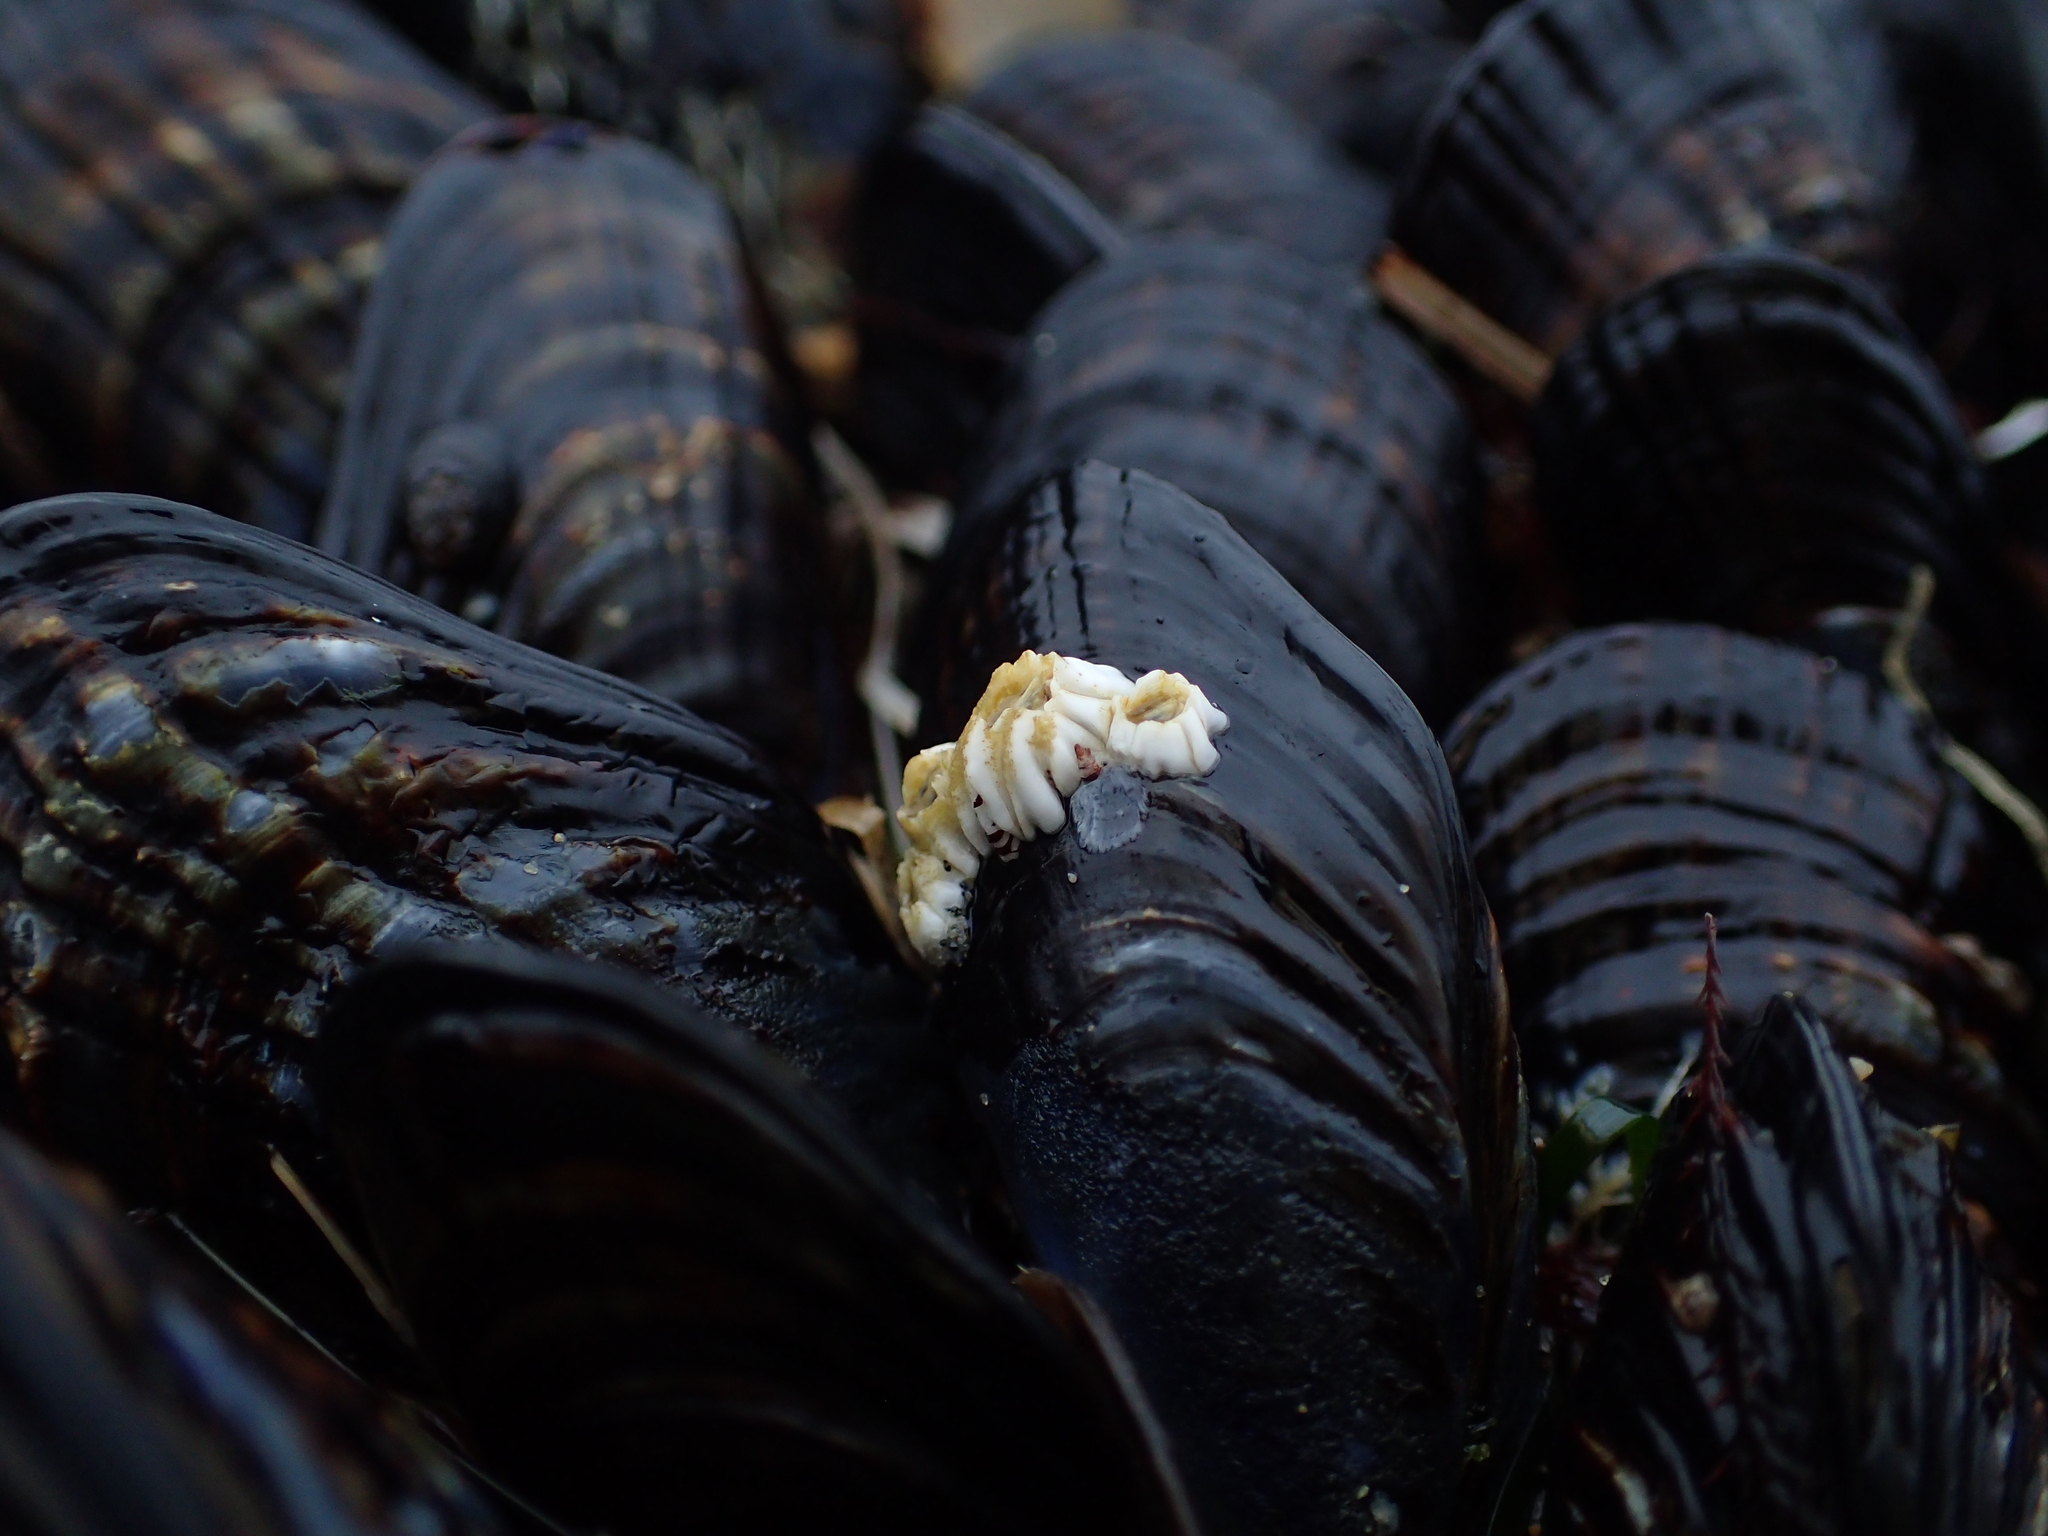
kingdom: Animalia
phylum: Arthropoda
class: Maxillopoda
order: Sessilia
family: Balanidae
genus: Balanus
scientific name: Balanus glandula
